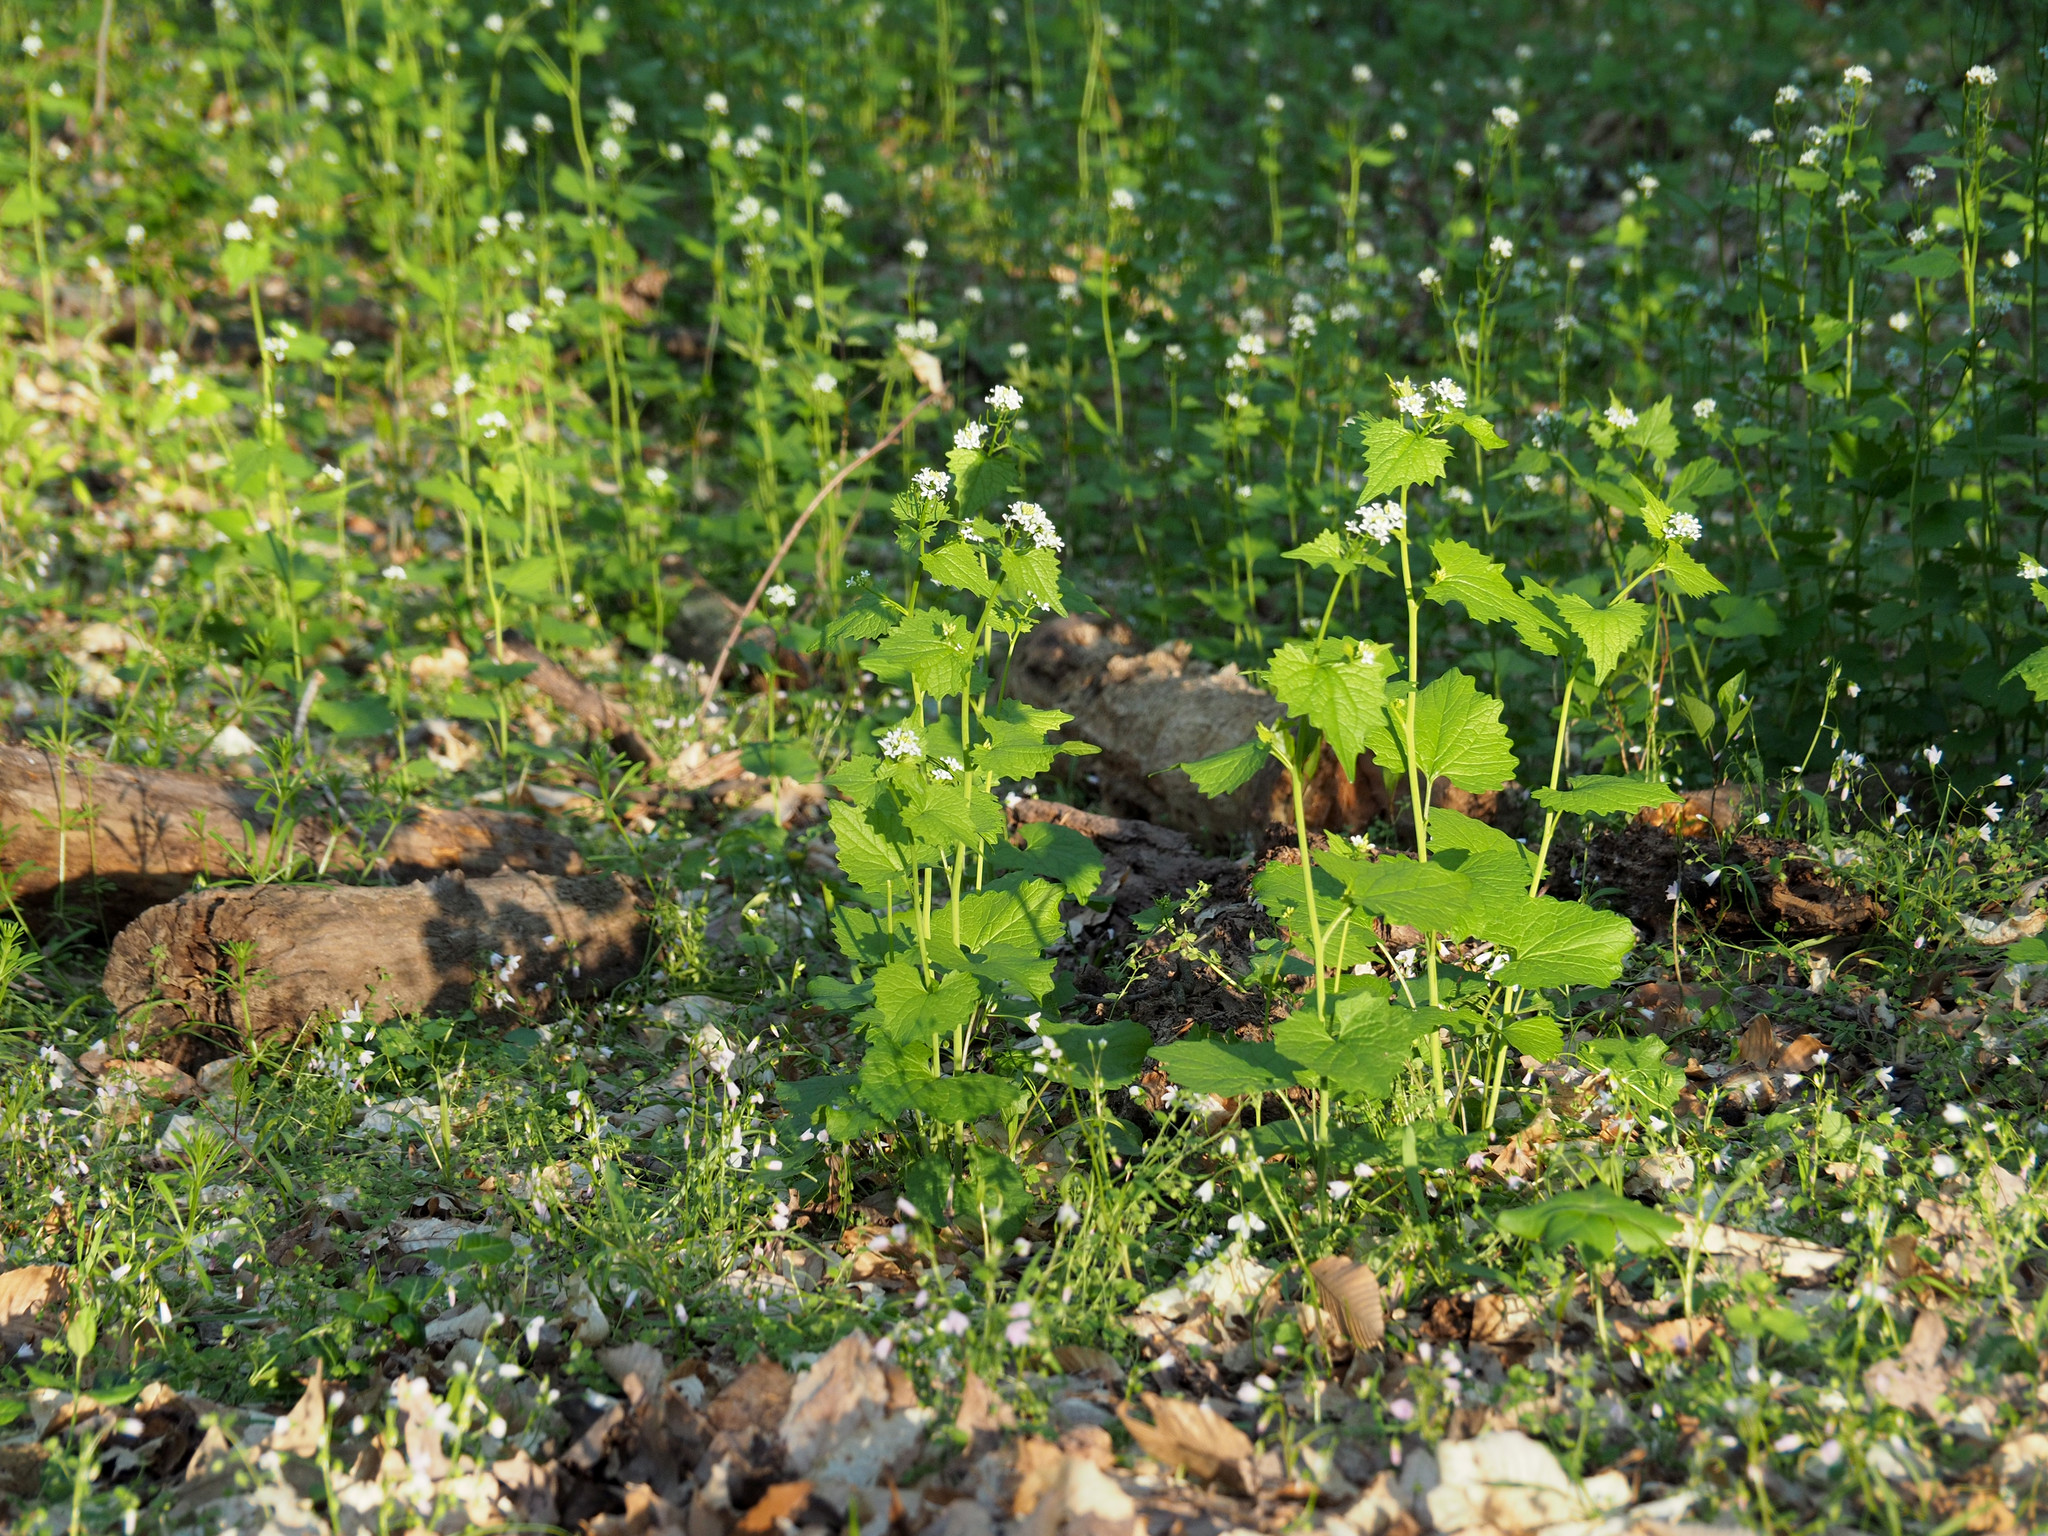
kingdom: Plantae
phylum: Tracheophyta
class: Magnoliopsida
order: Brassicales
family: Brassicaceae
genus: Alliaria
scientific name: Alliaria petiolata
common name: Garlic mustard
